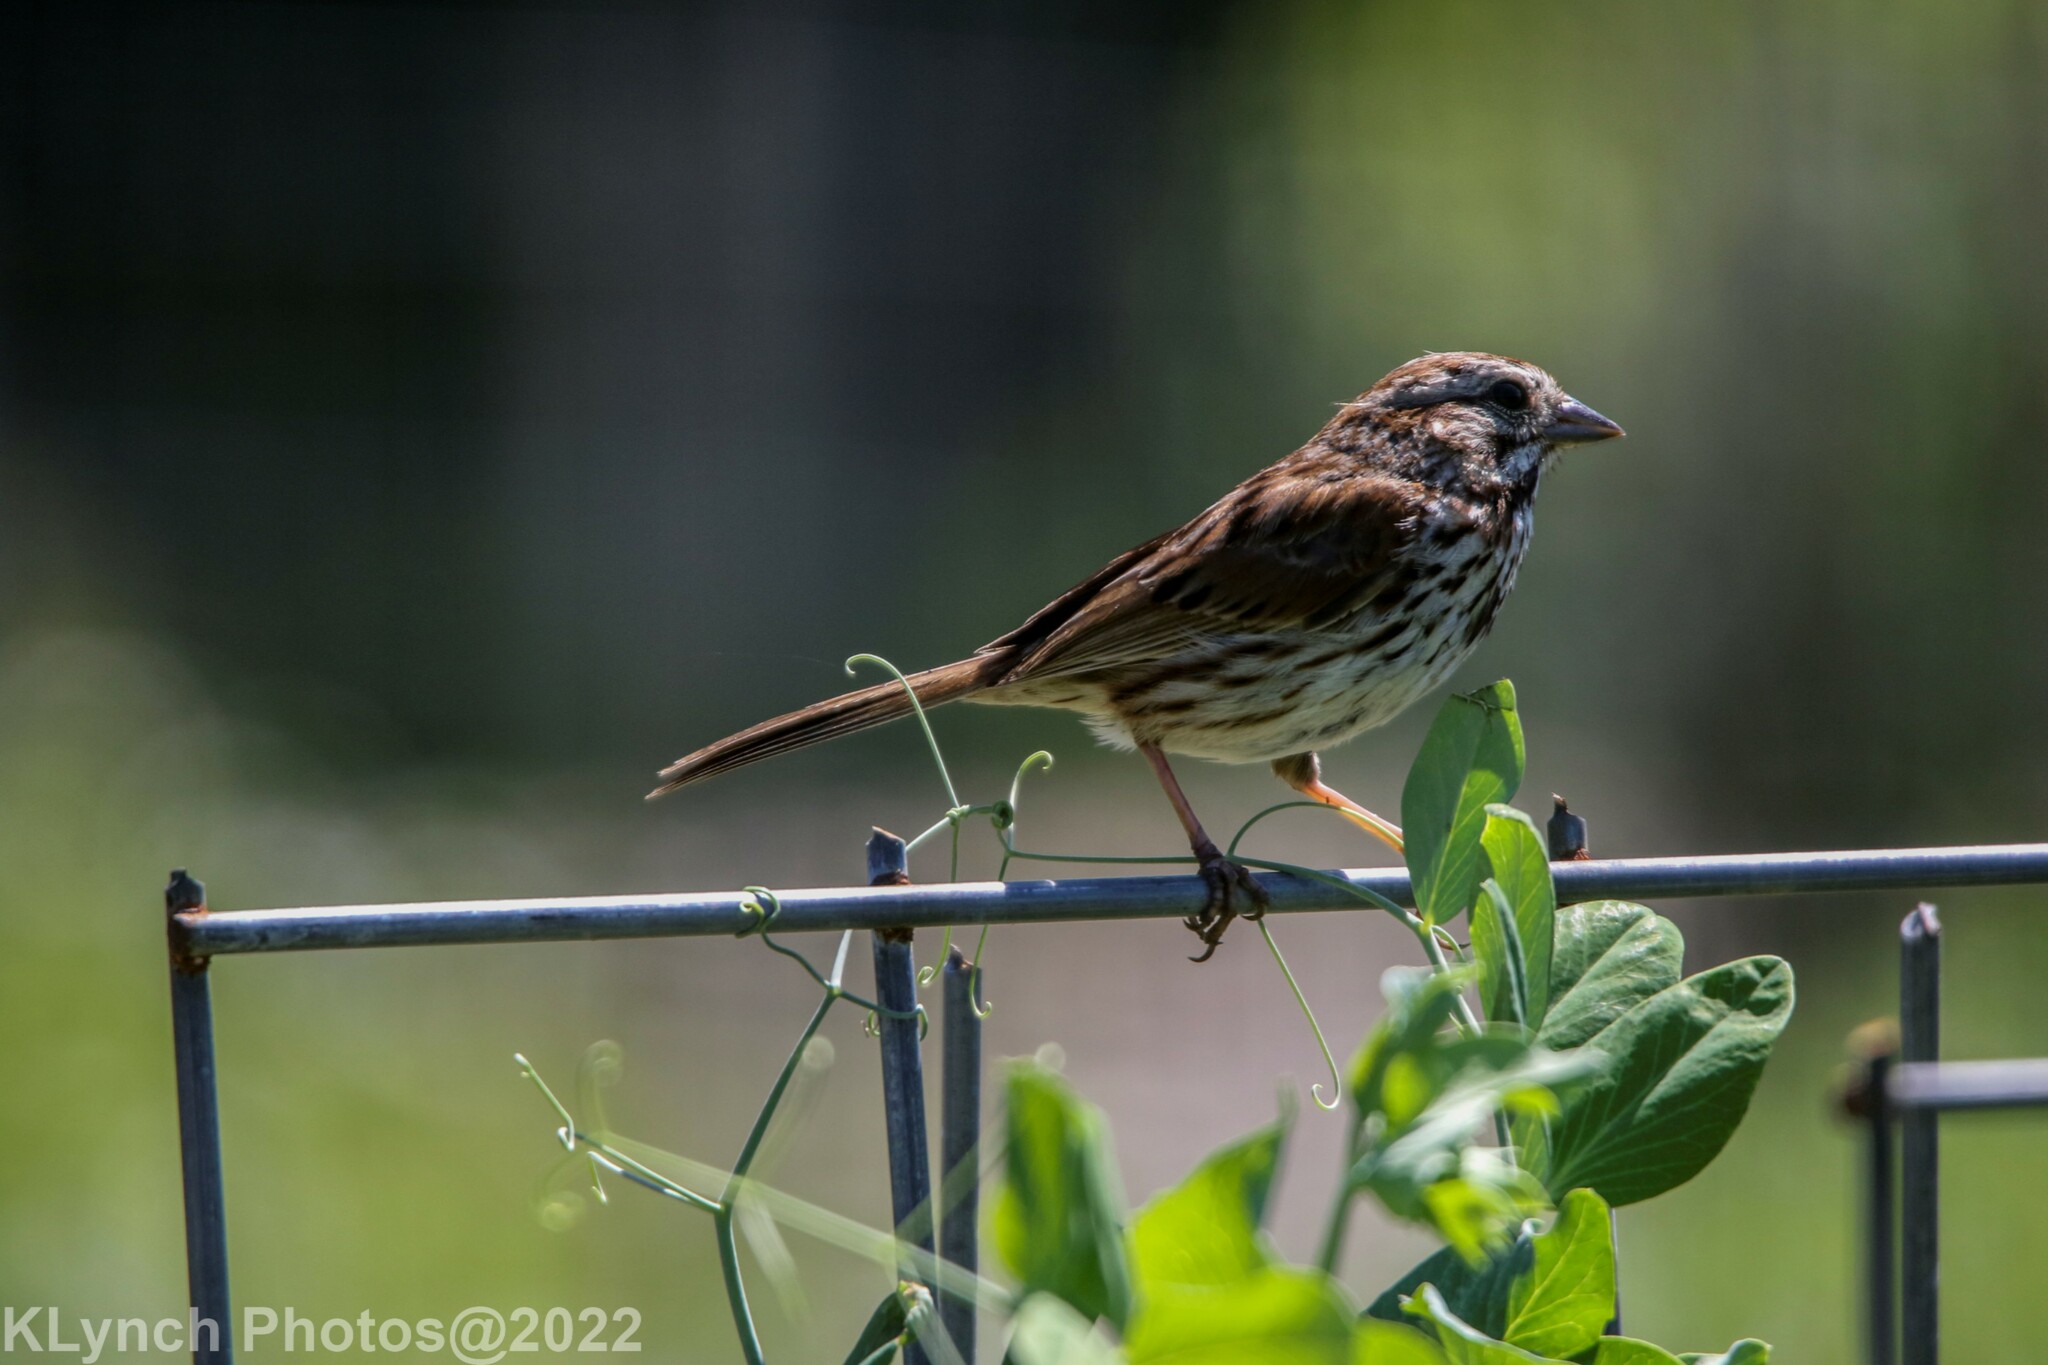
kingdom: Animalia
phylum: Chordata
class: Aves
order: Passeriformes
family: Passerellidae
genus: Melospiza
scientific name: Melospiza melodia
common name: Song sparrow
